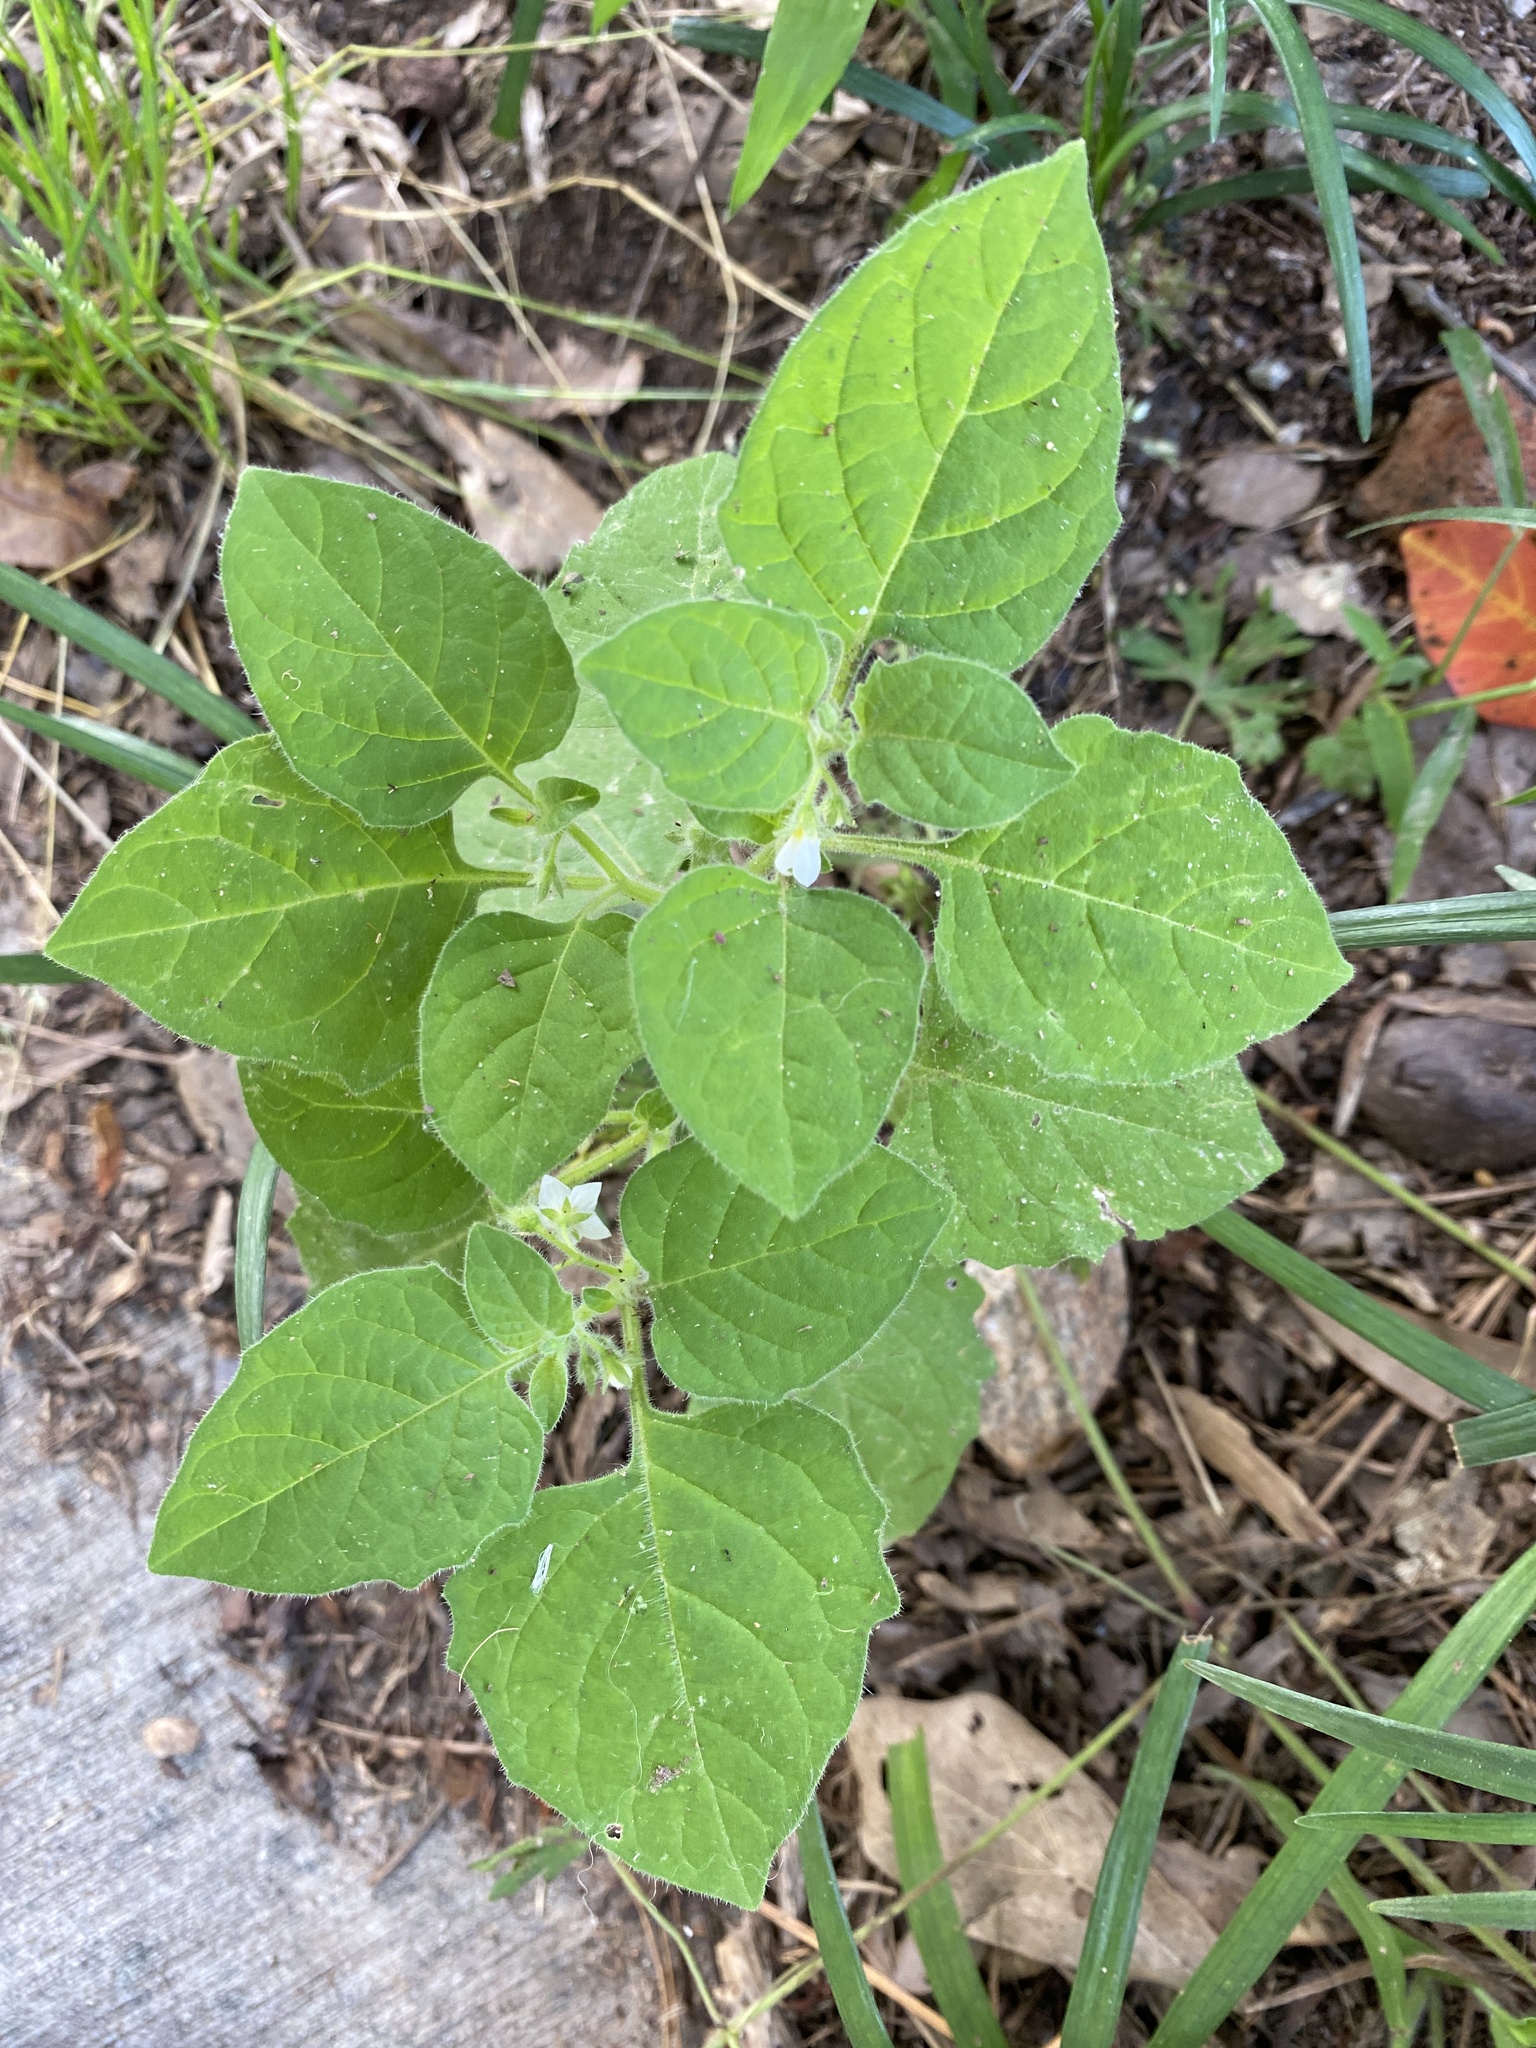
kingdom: Plantae
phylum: Tracheophyta
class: Magnoliopsida
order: Solanales
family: Solanaceae
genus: Solanum
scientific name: Solanum sarrachoides
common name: Leafy-fruited nightshade
